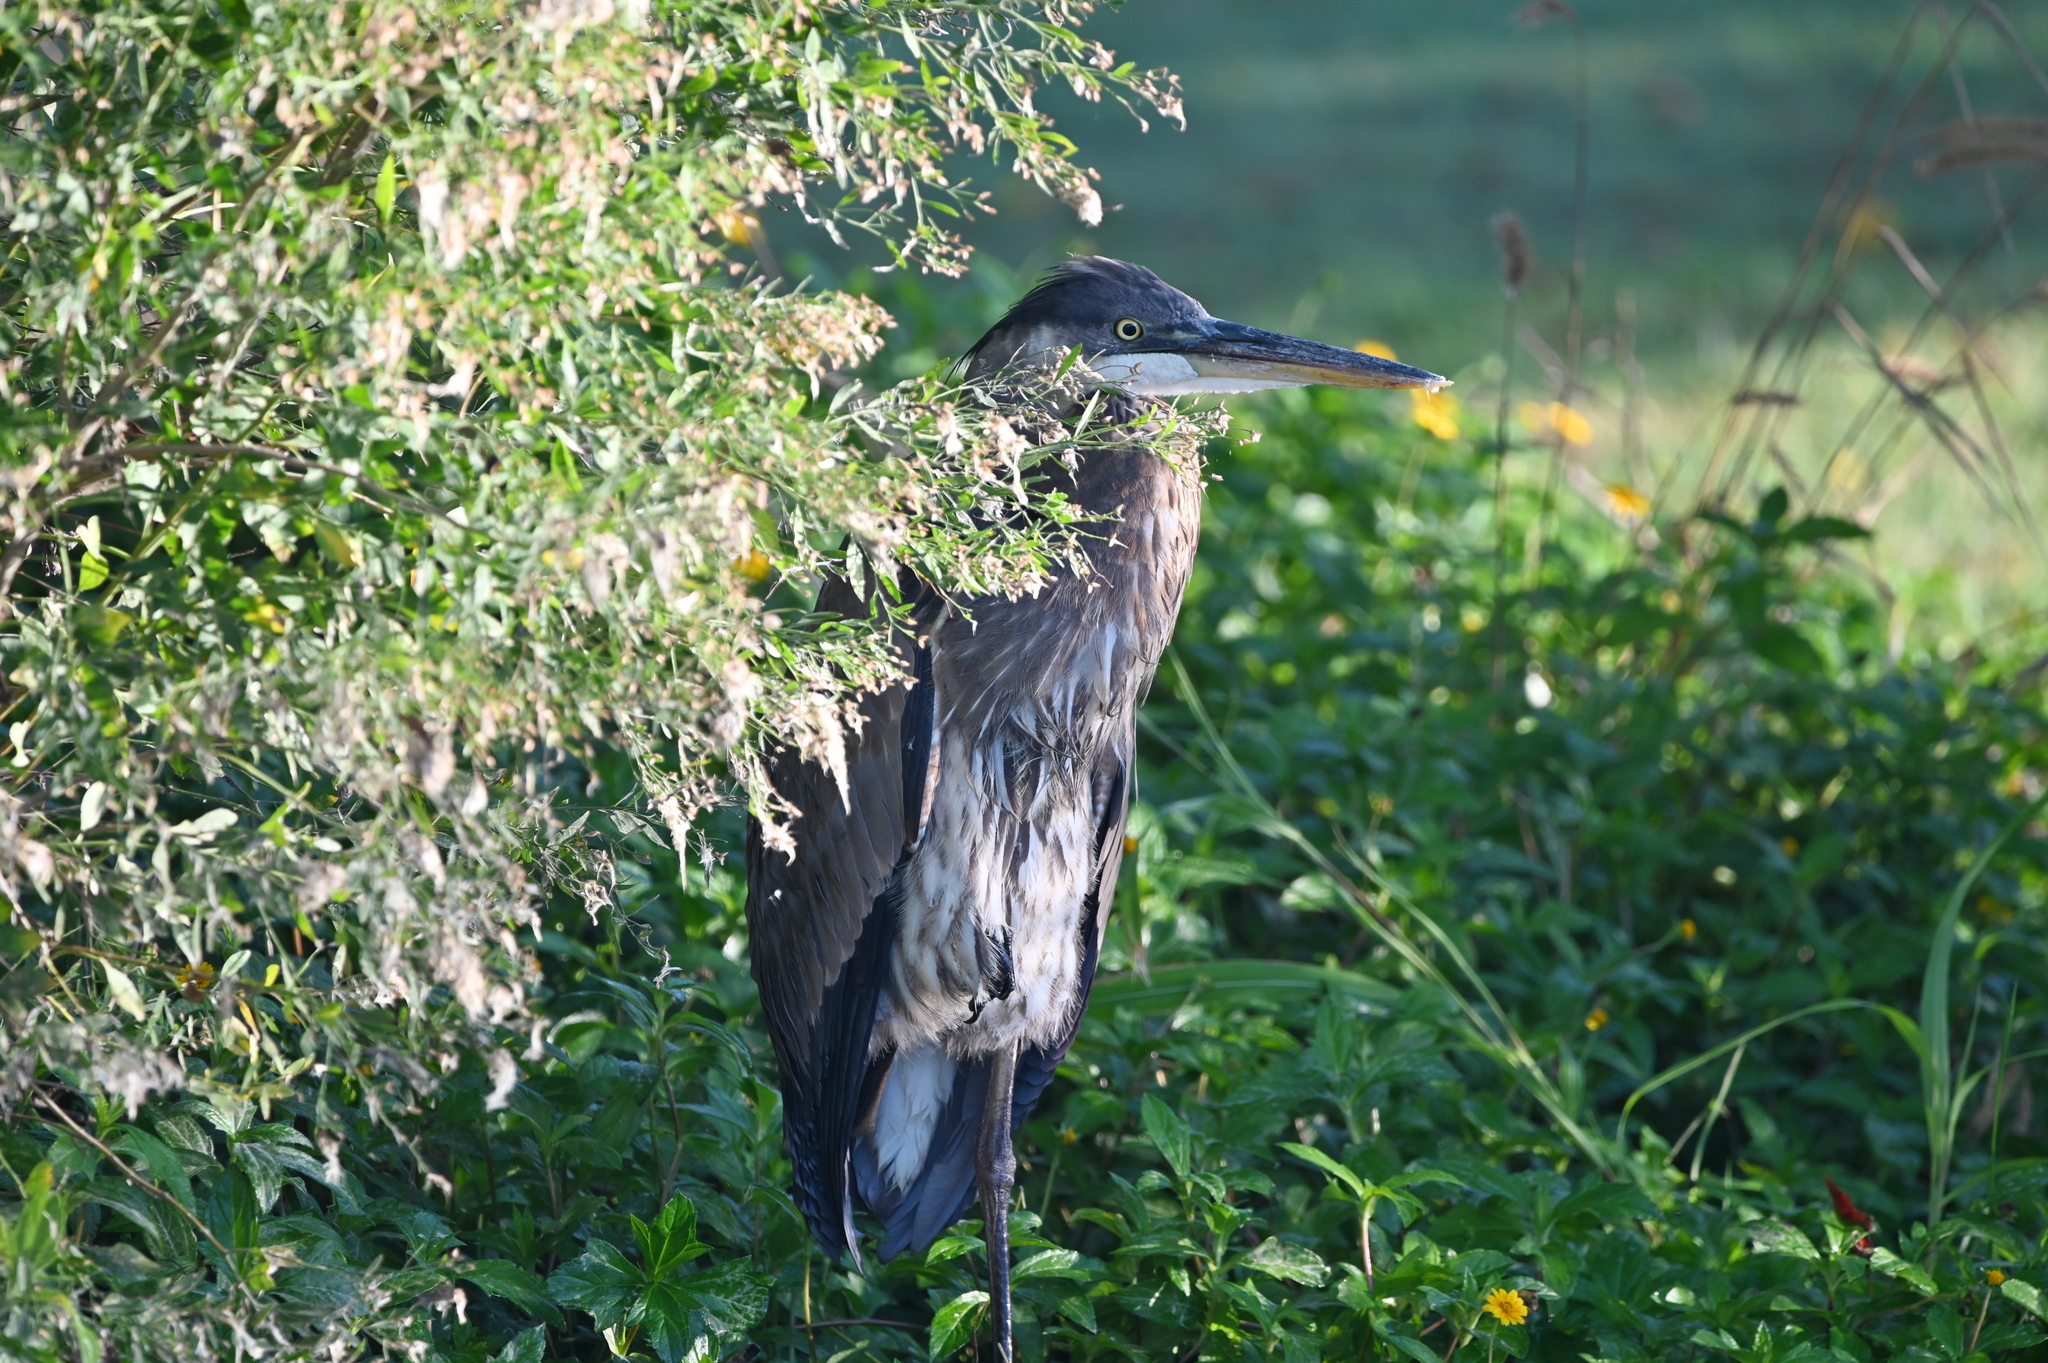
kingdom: Animalia
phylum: Chordata
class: Aves
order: Pelecaniformes
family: Ardeidae
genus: Ardea
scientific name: Ardea herodias
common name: Great blue heron
